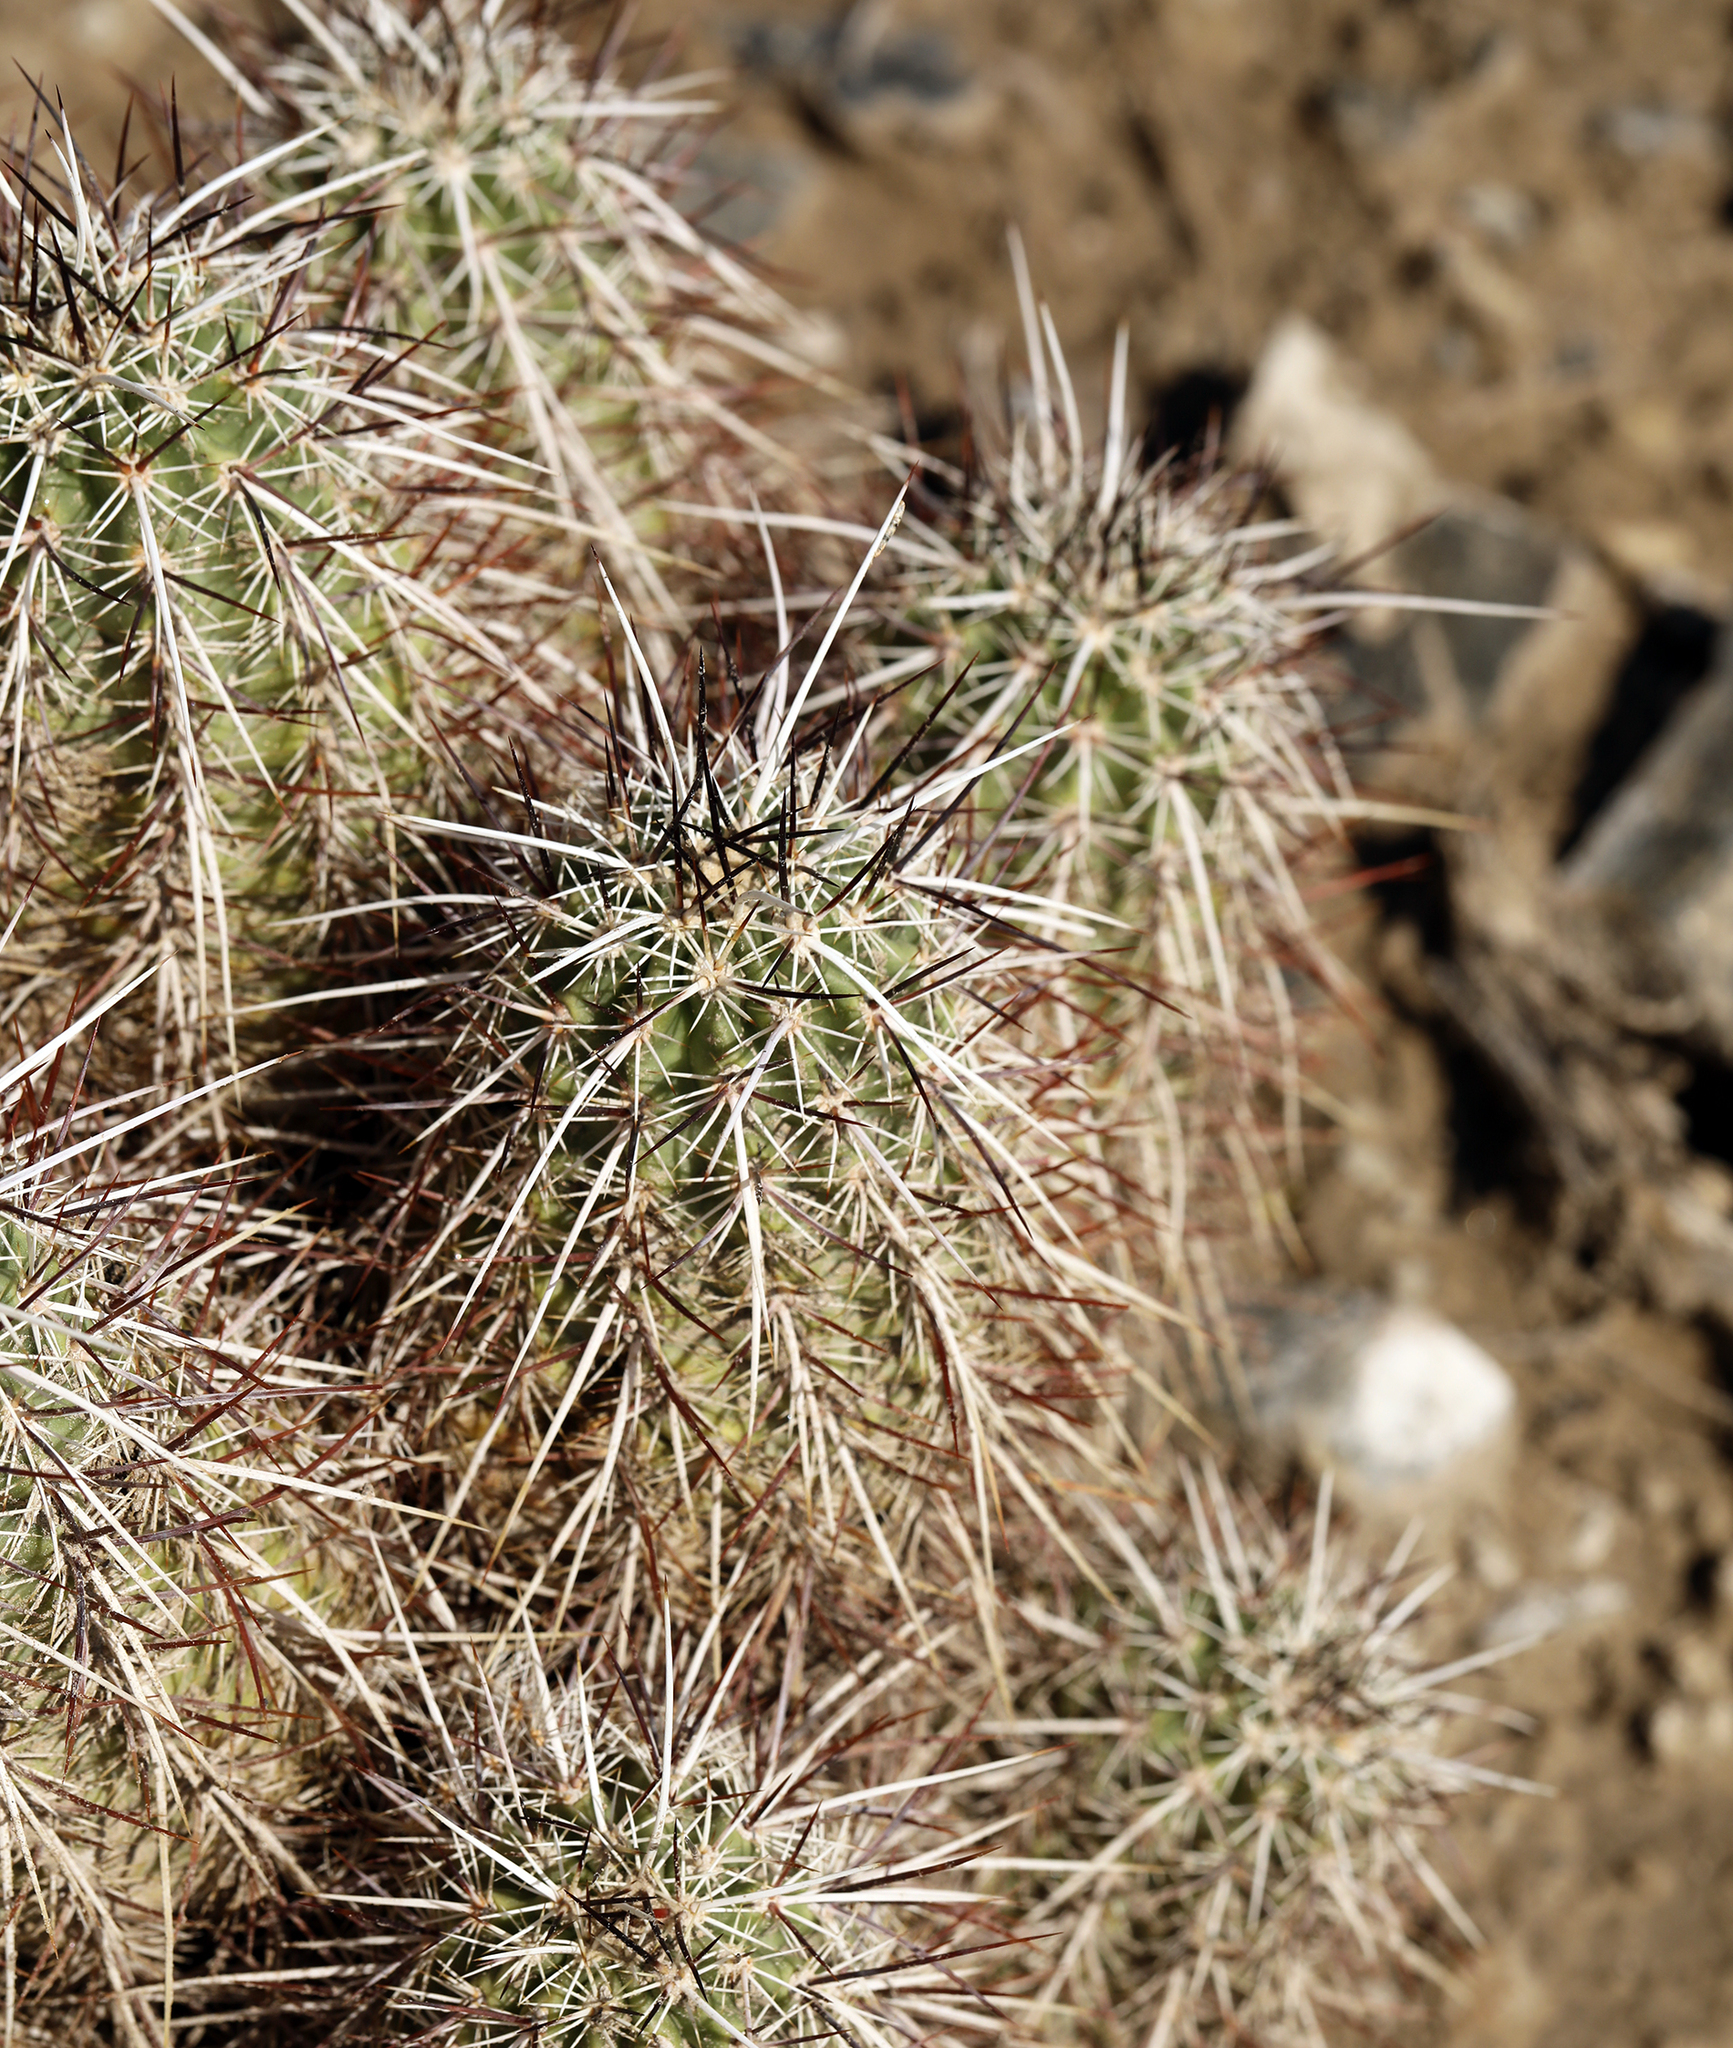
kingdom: Plantae
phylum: Tracheophyta
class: Magnoliopsida
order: Caryophyllales
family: Cactaceae
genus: Echinocereus
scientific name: Echinocereus engelmannii
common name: Engelmann's hedgehog cactus
